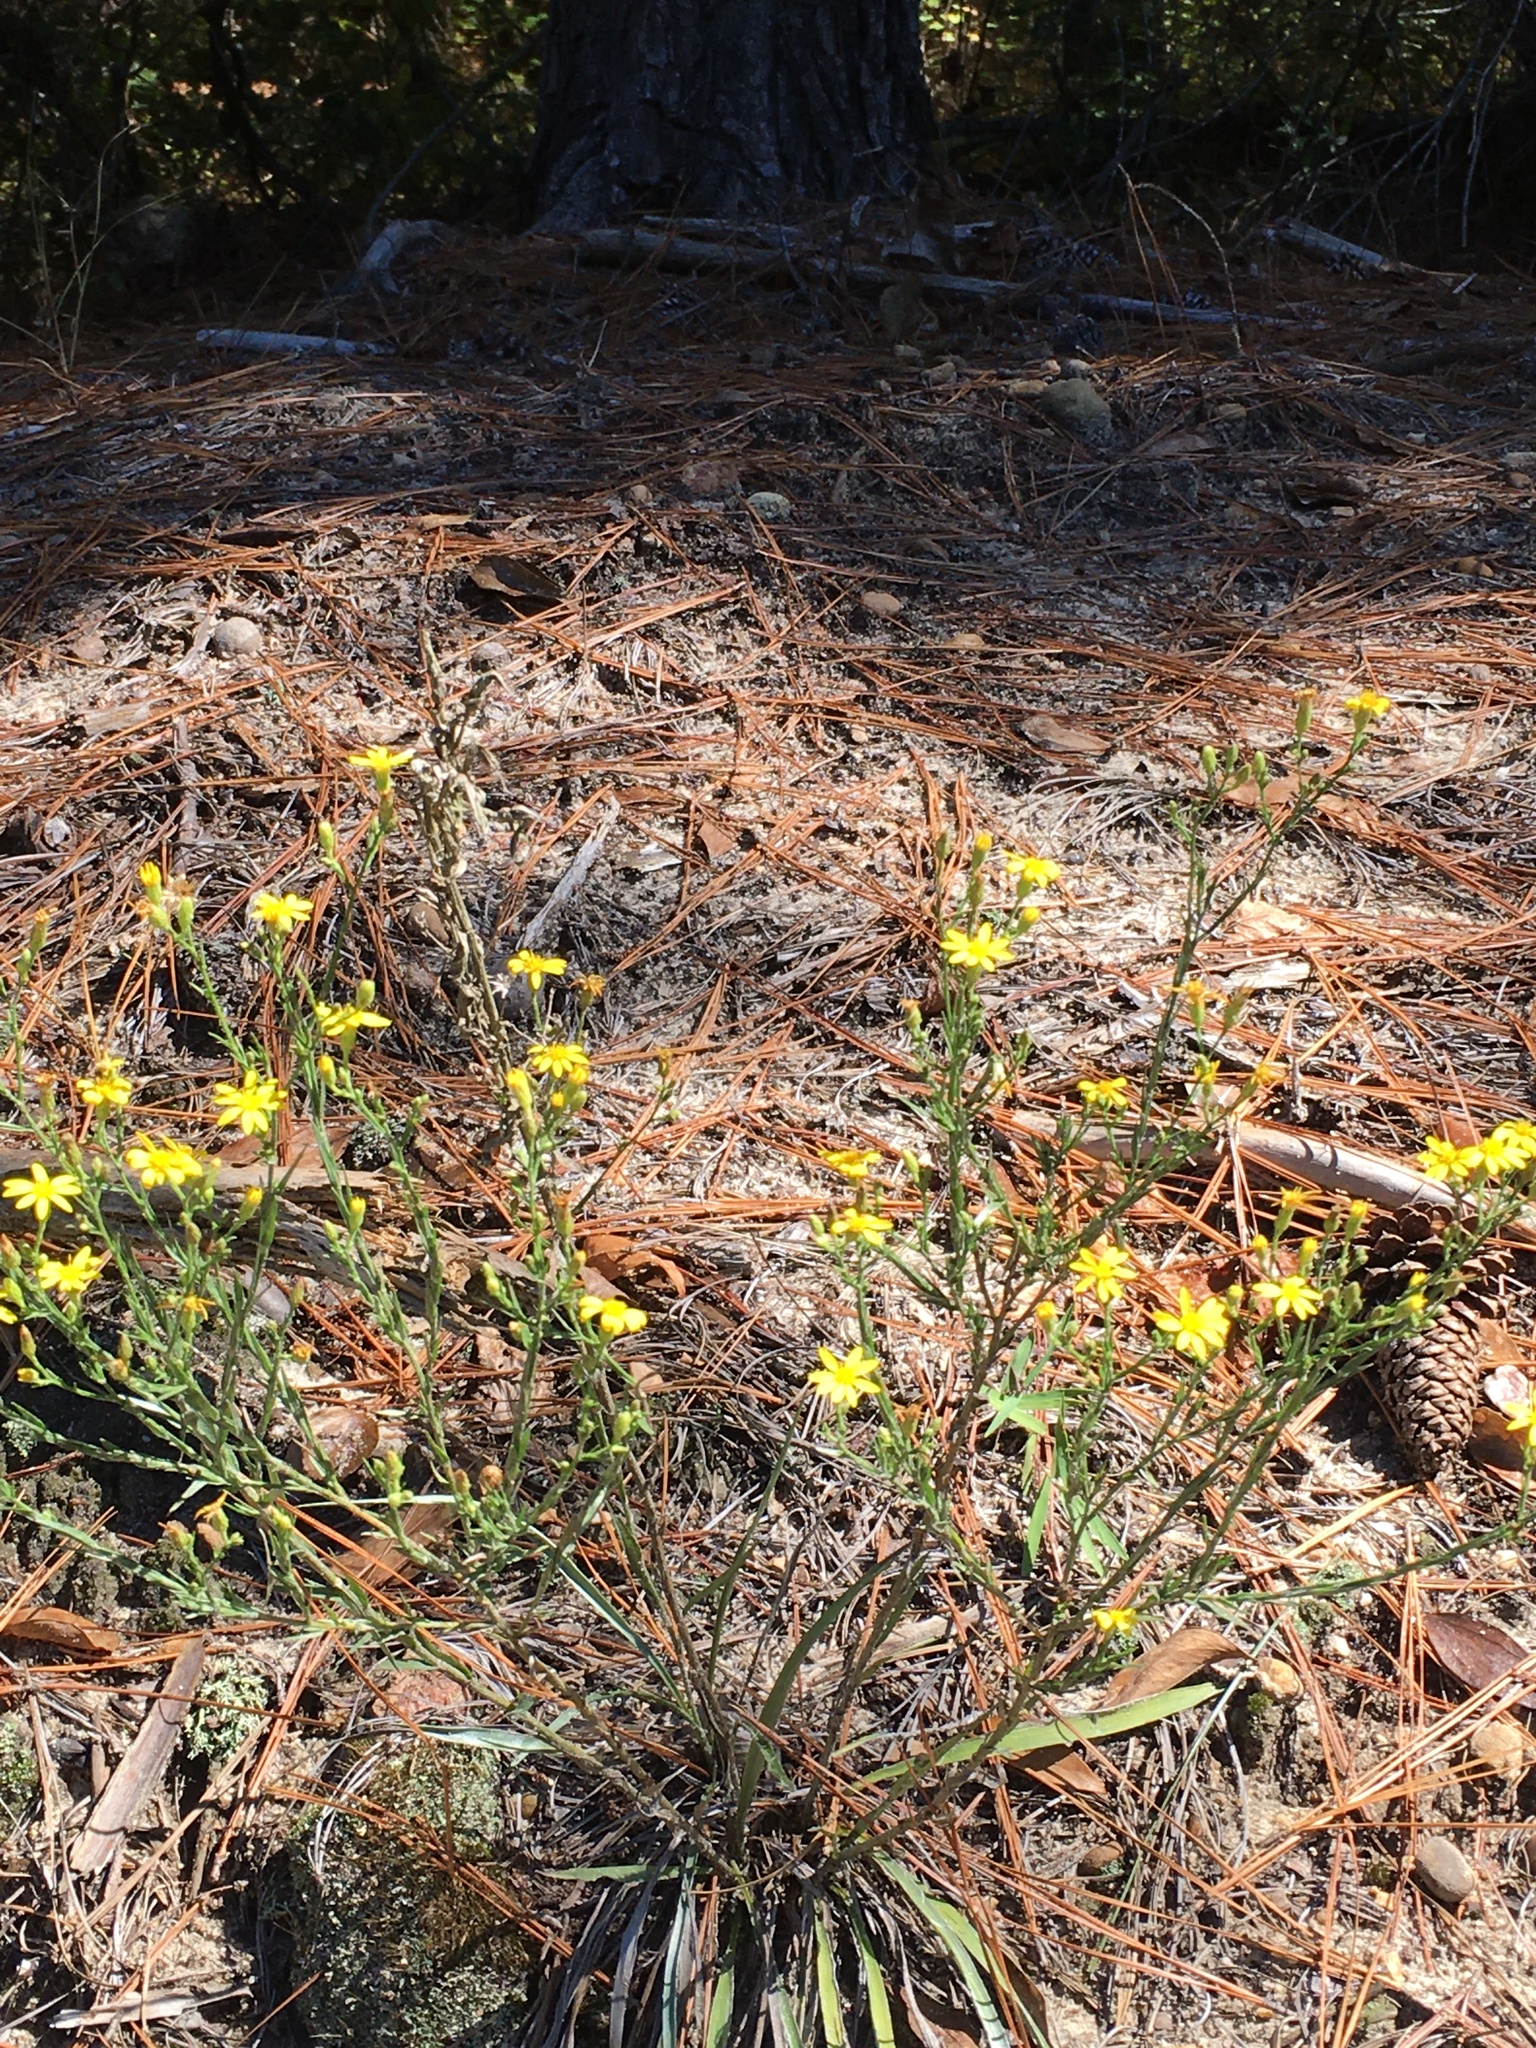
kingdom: Plantae
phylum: Tracheophyta
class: Magnoliopsida
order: Asterales
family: Asteraceae
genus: Pityopsis
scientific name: Pityopsis aspera
